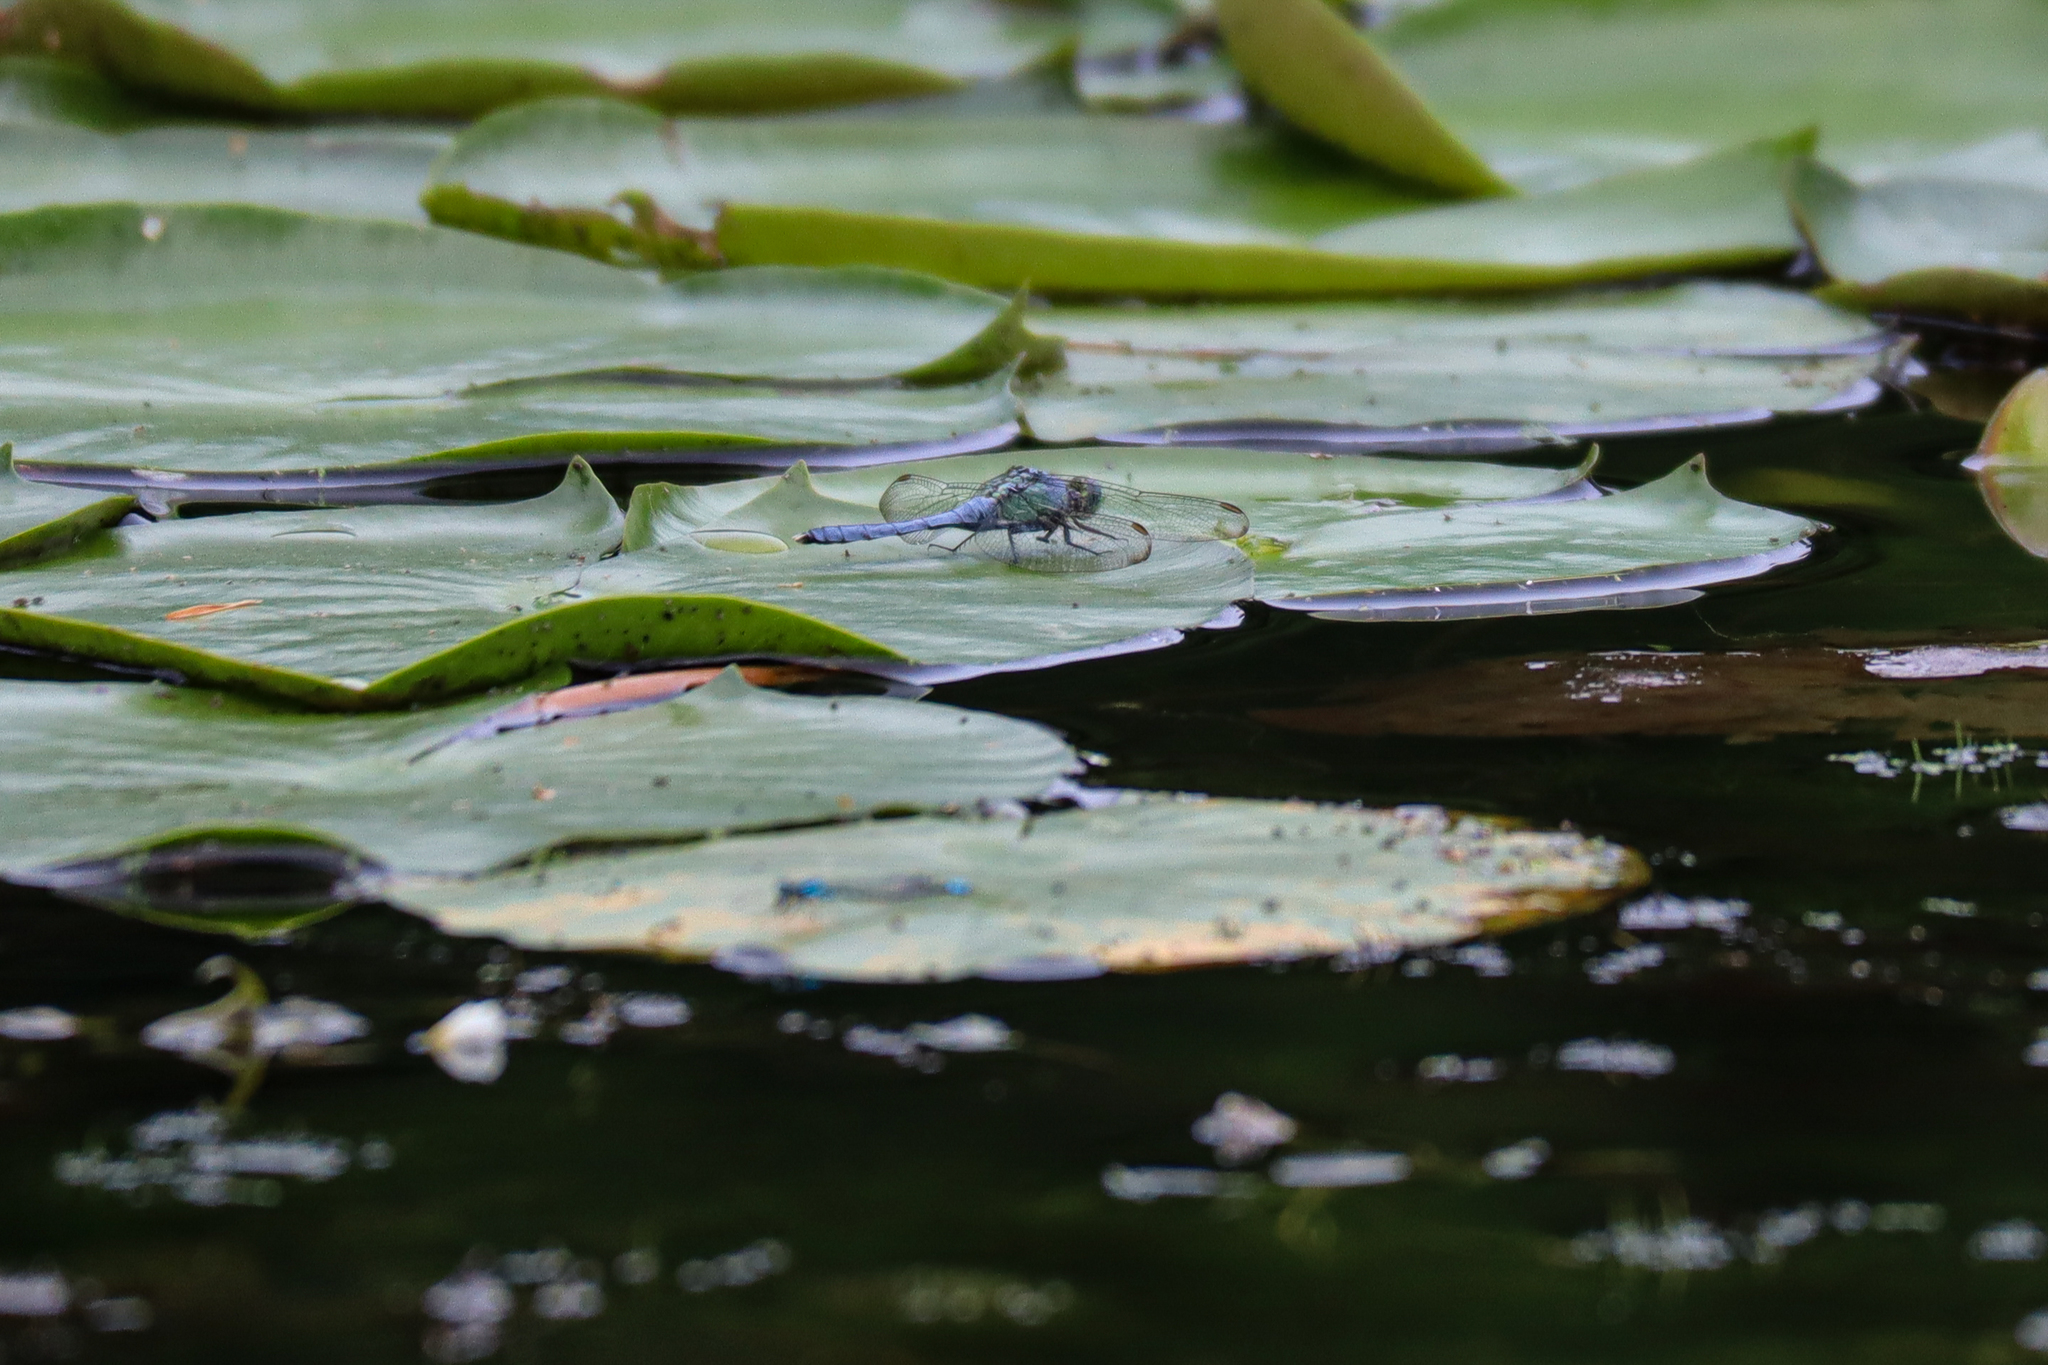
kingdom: Animalia
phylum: Arthropoda
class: Insecta
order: Odonata
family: Libellulidae
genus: Erythemis
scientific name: Erythemis simplicicollis
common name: Eastern pondhawk
